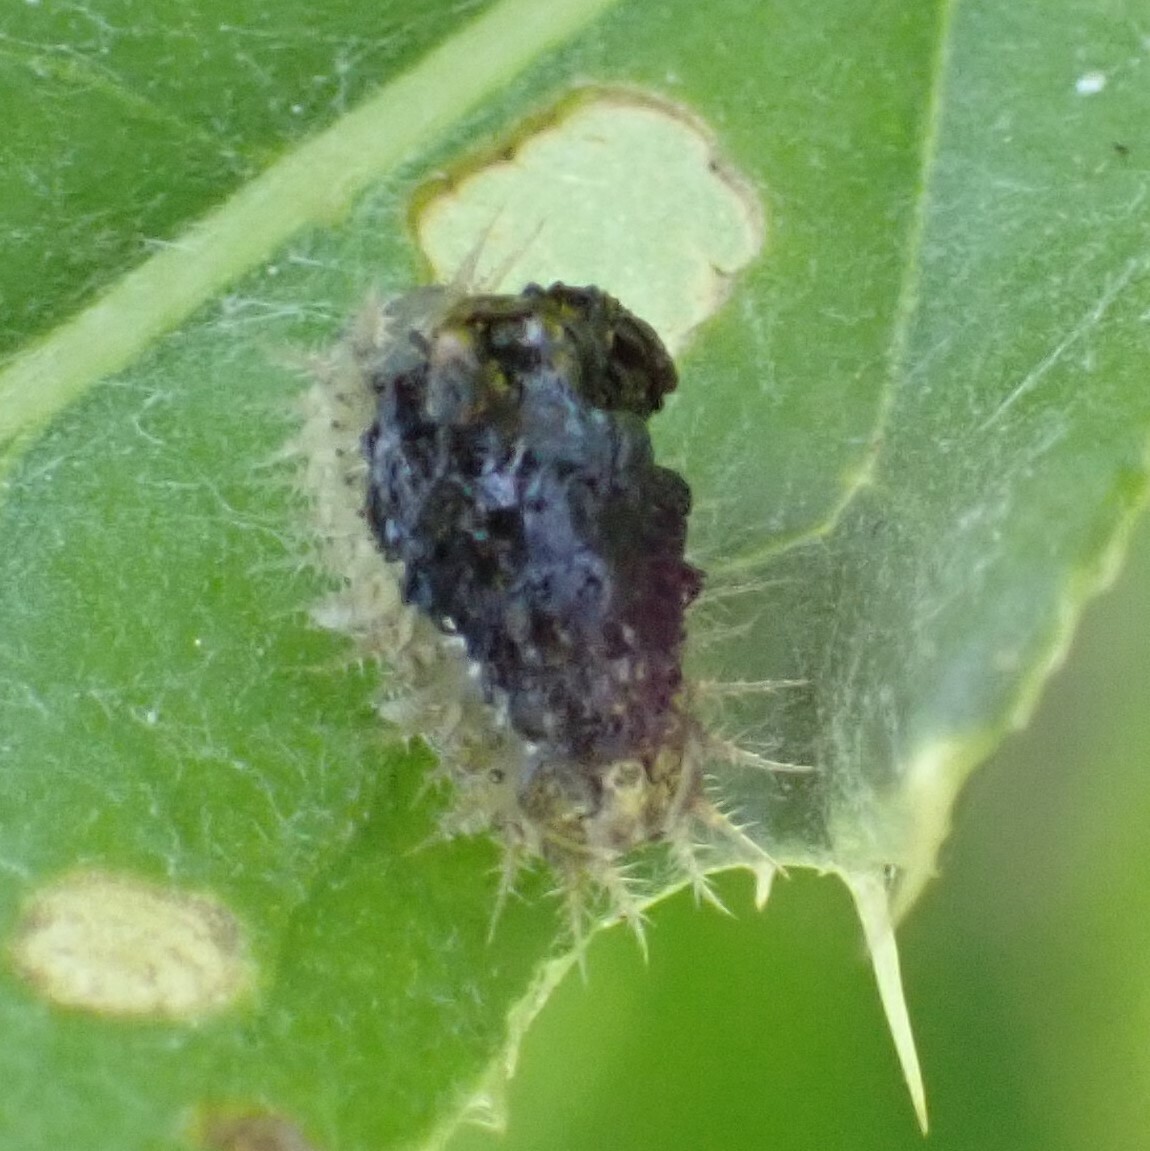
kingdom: Animalia
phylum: Arthropoda
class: Insecta
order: Coleoptera
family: Chrysomelidae
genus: Cassida
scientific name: Cassida rubiginosa
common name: Thistle tortoise beetle
